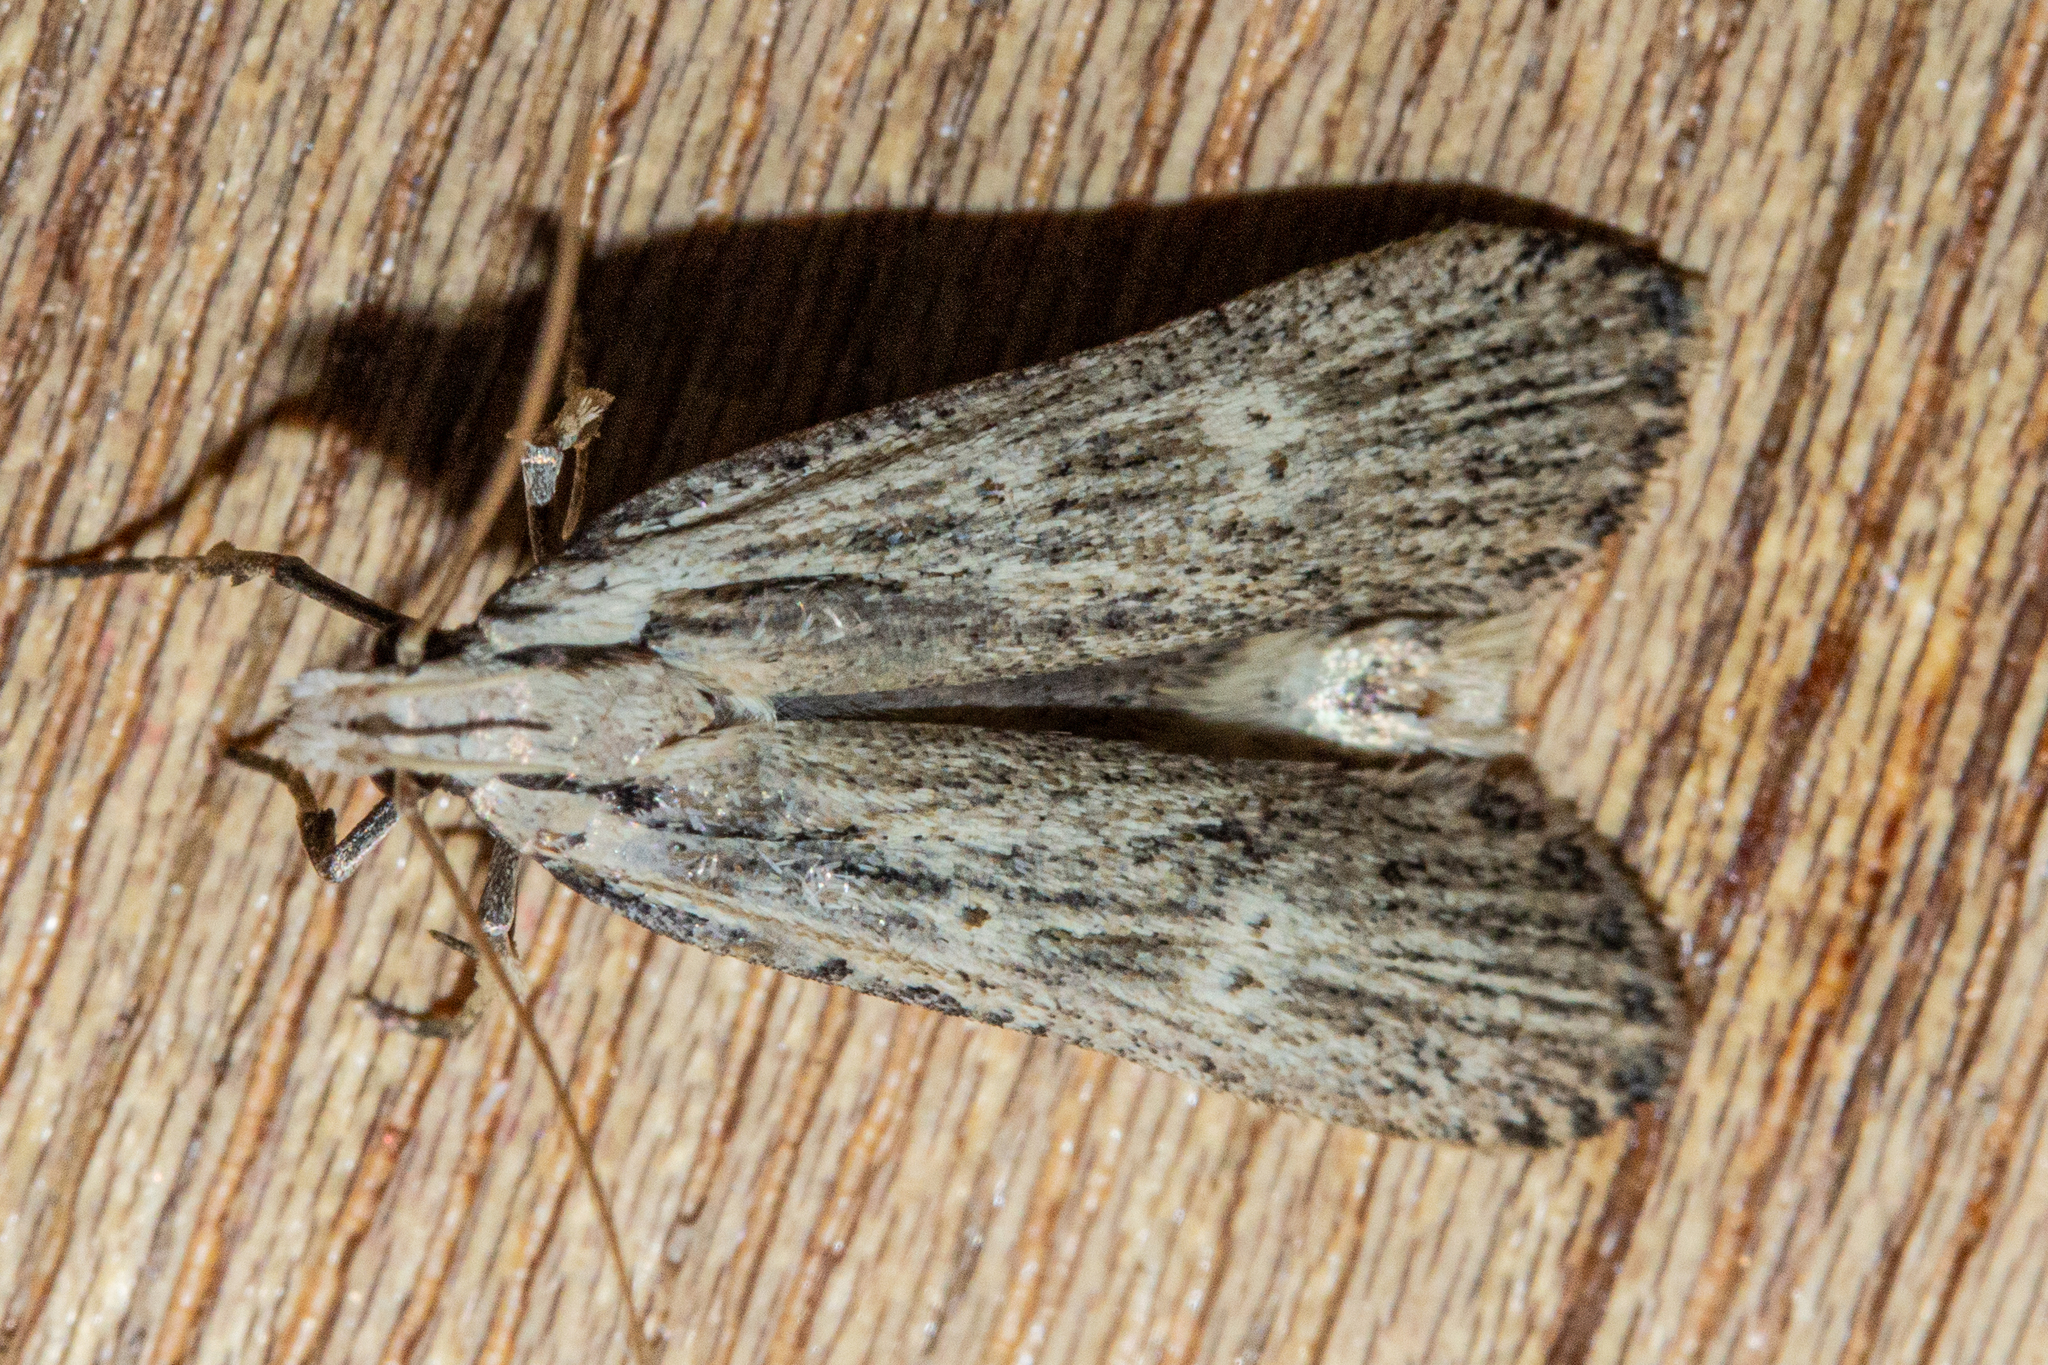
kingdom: Animalia
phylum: Arthropoda
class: Insecta
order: Lepidoptera
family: Gelechiidae
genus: Anisoplaca
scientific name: Anisoplaca ptyoptera
